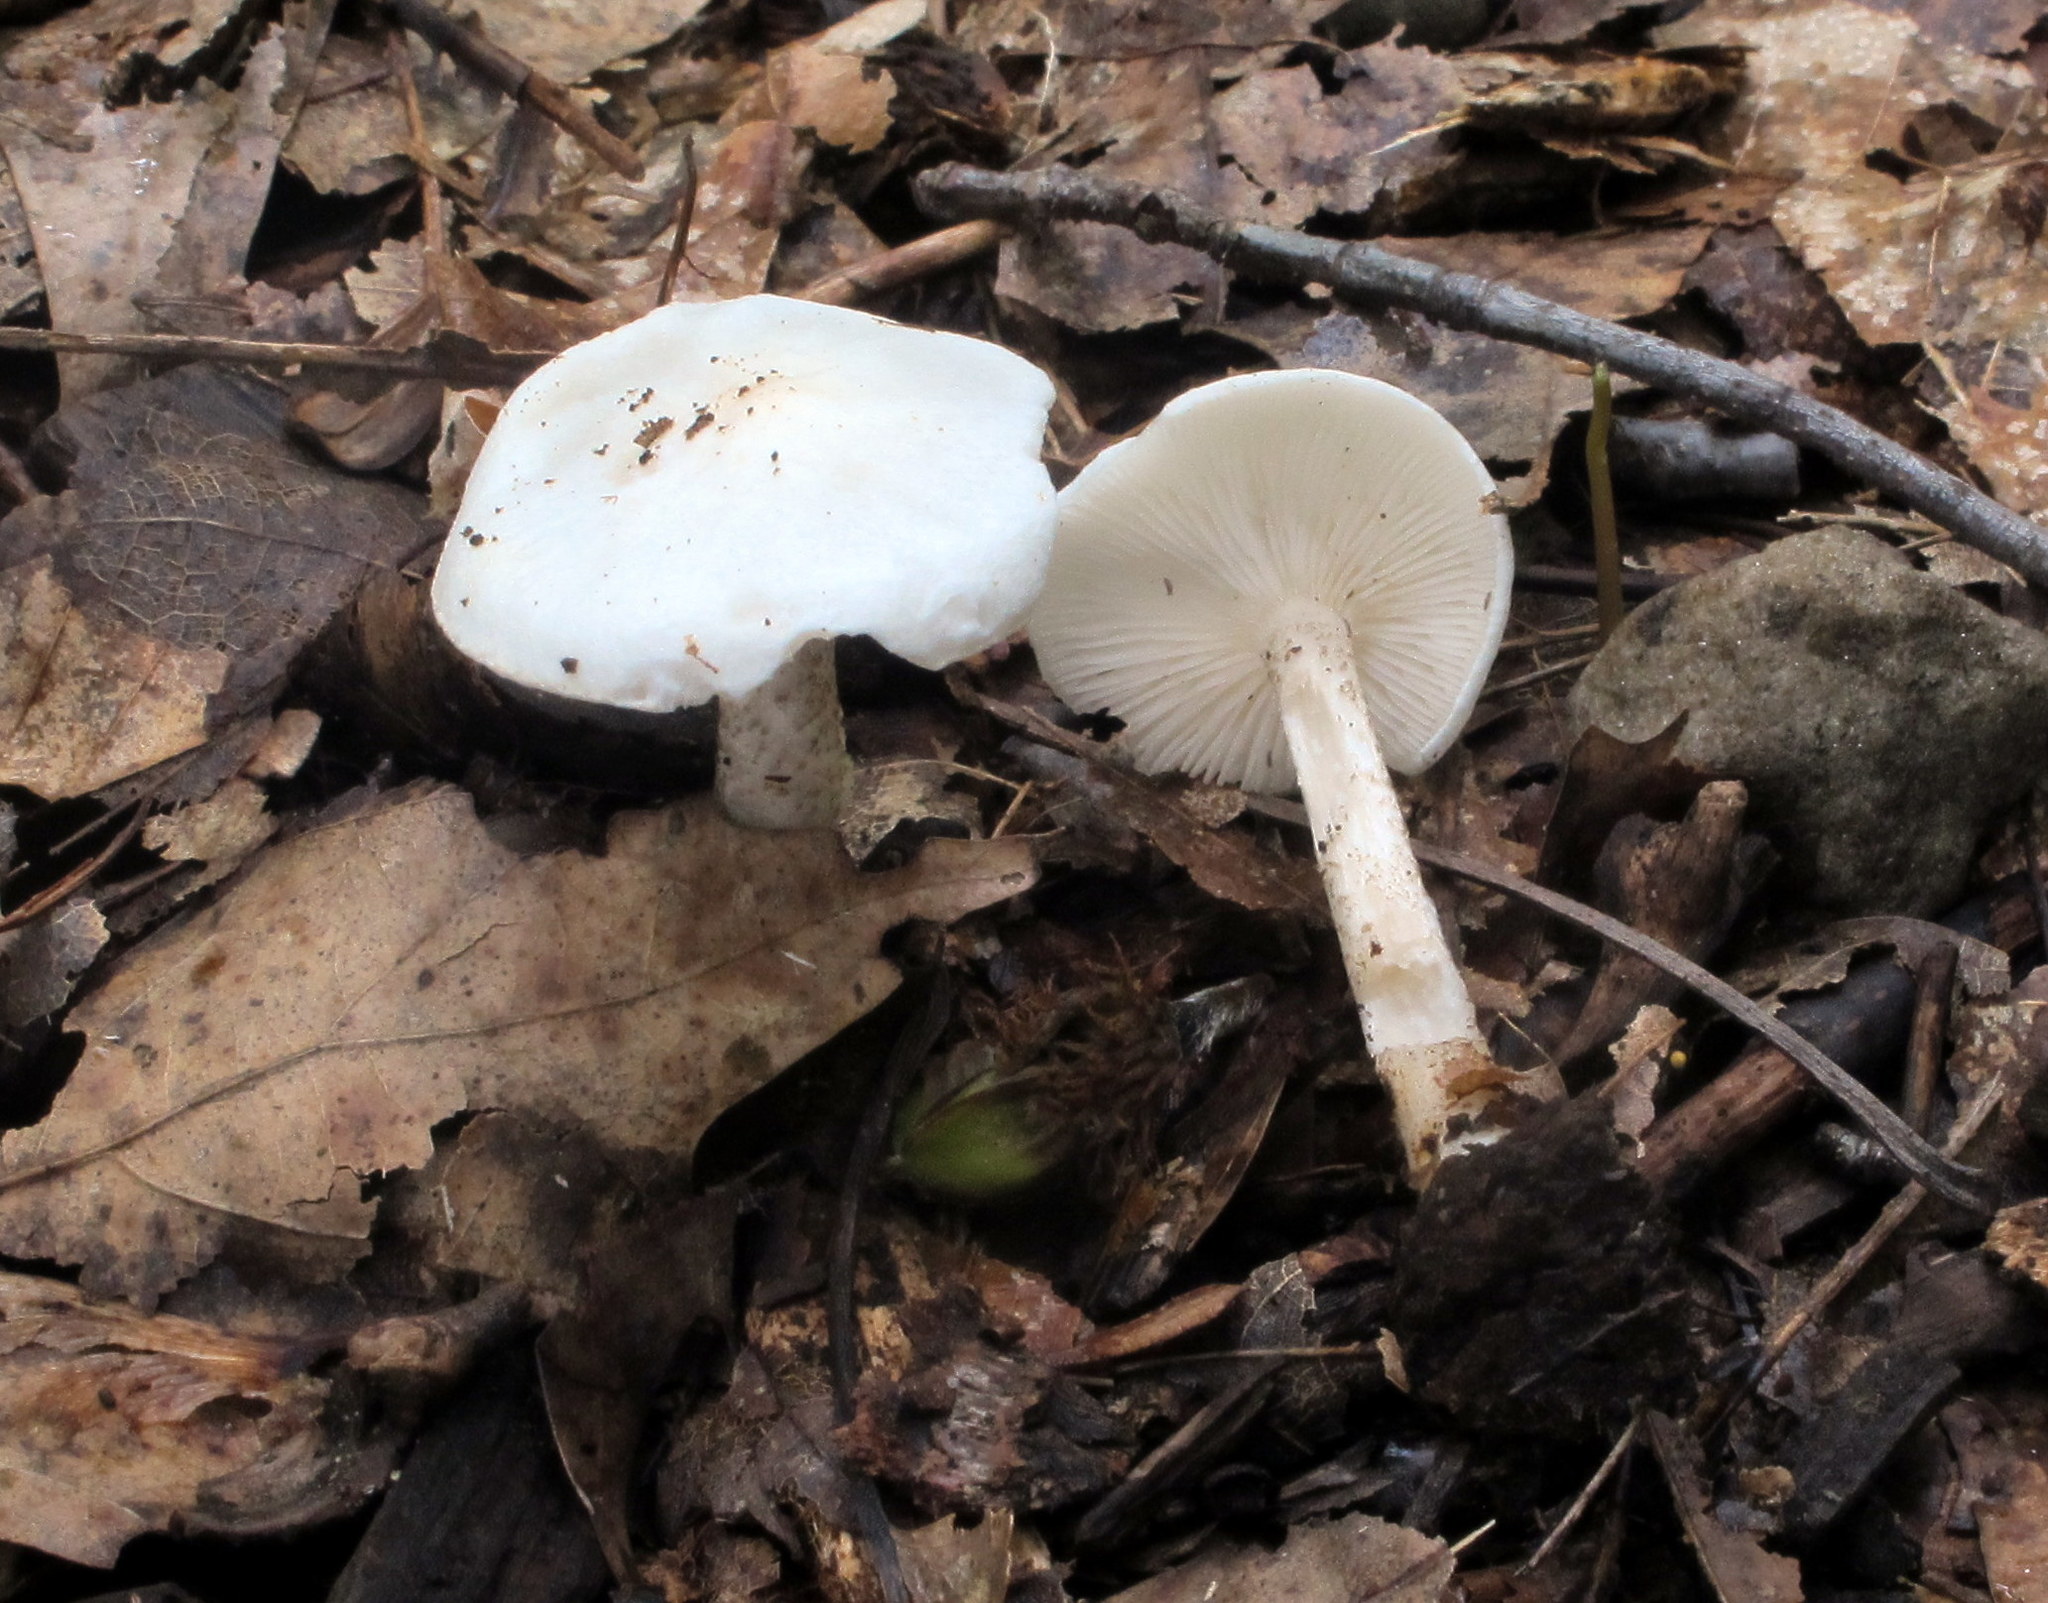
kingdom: Fungi
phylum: Basidiomycota
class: Agaricomycetes
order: Agaricales
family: Tricholomataceae
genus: Melanoleuca
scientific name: Melanoleuca verrucipes
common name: Warty cavalier
